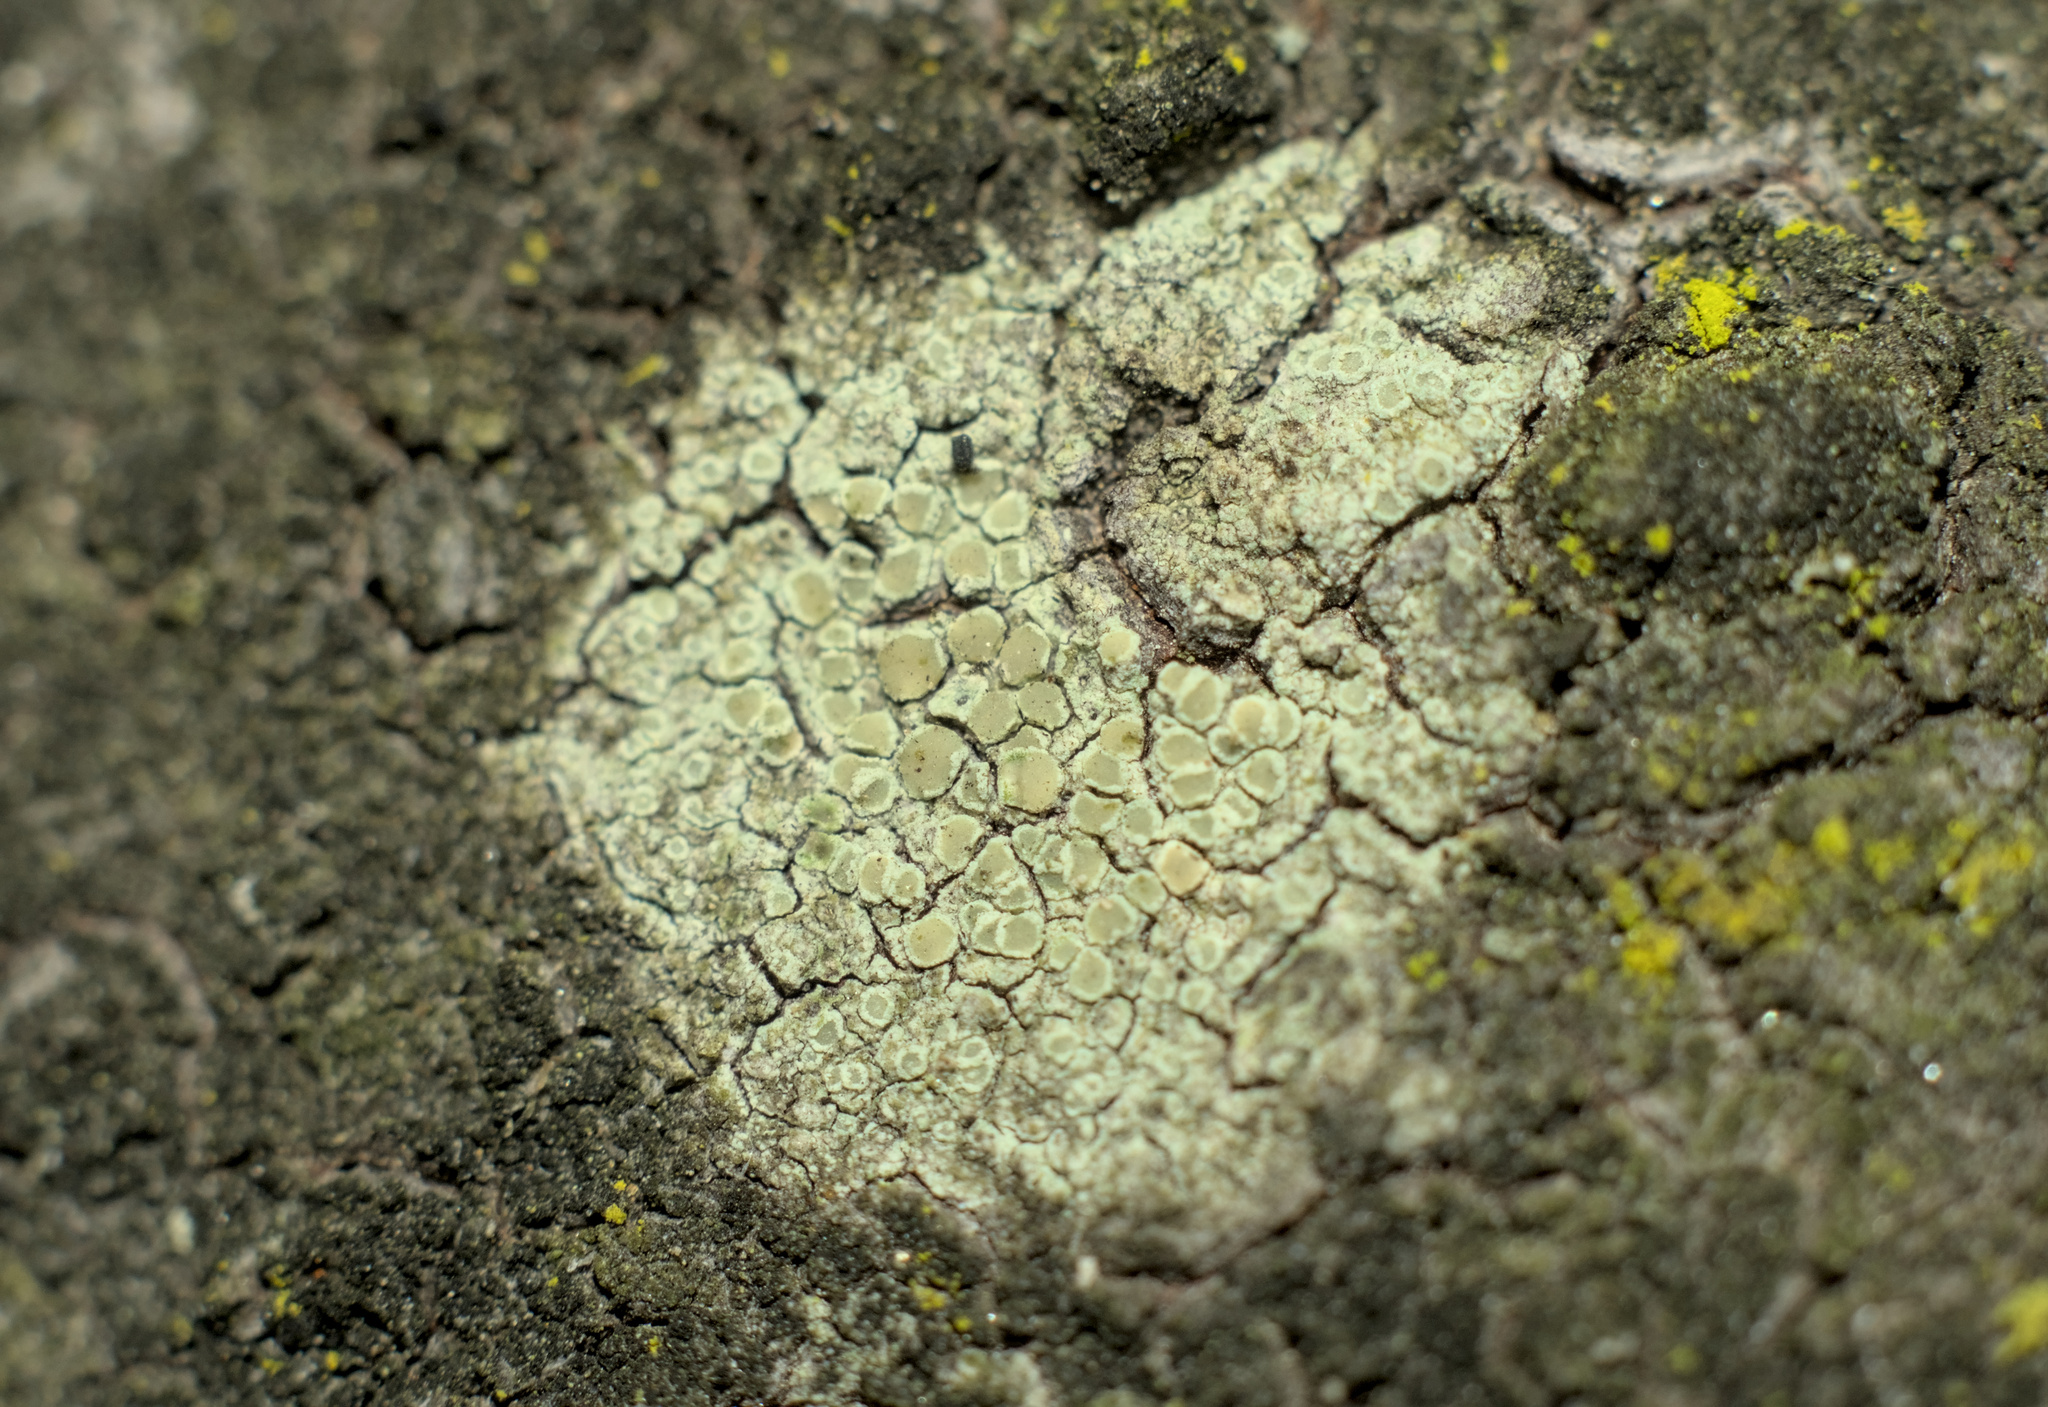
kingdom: Fungi
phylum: Ascomycota
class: Lecanoromycetes
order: Lecanorales
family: Lecanoraceae
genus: Lecanora
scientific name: Lecanora confusa
